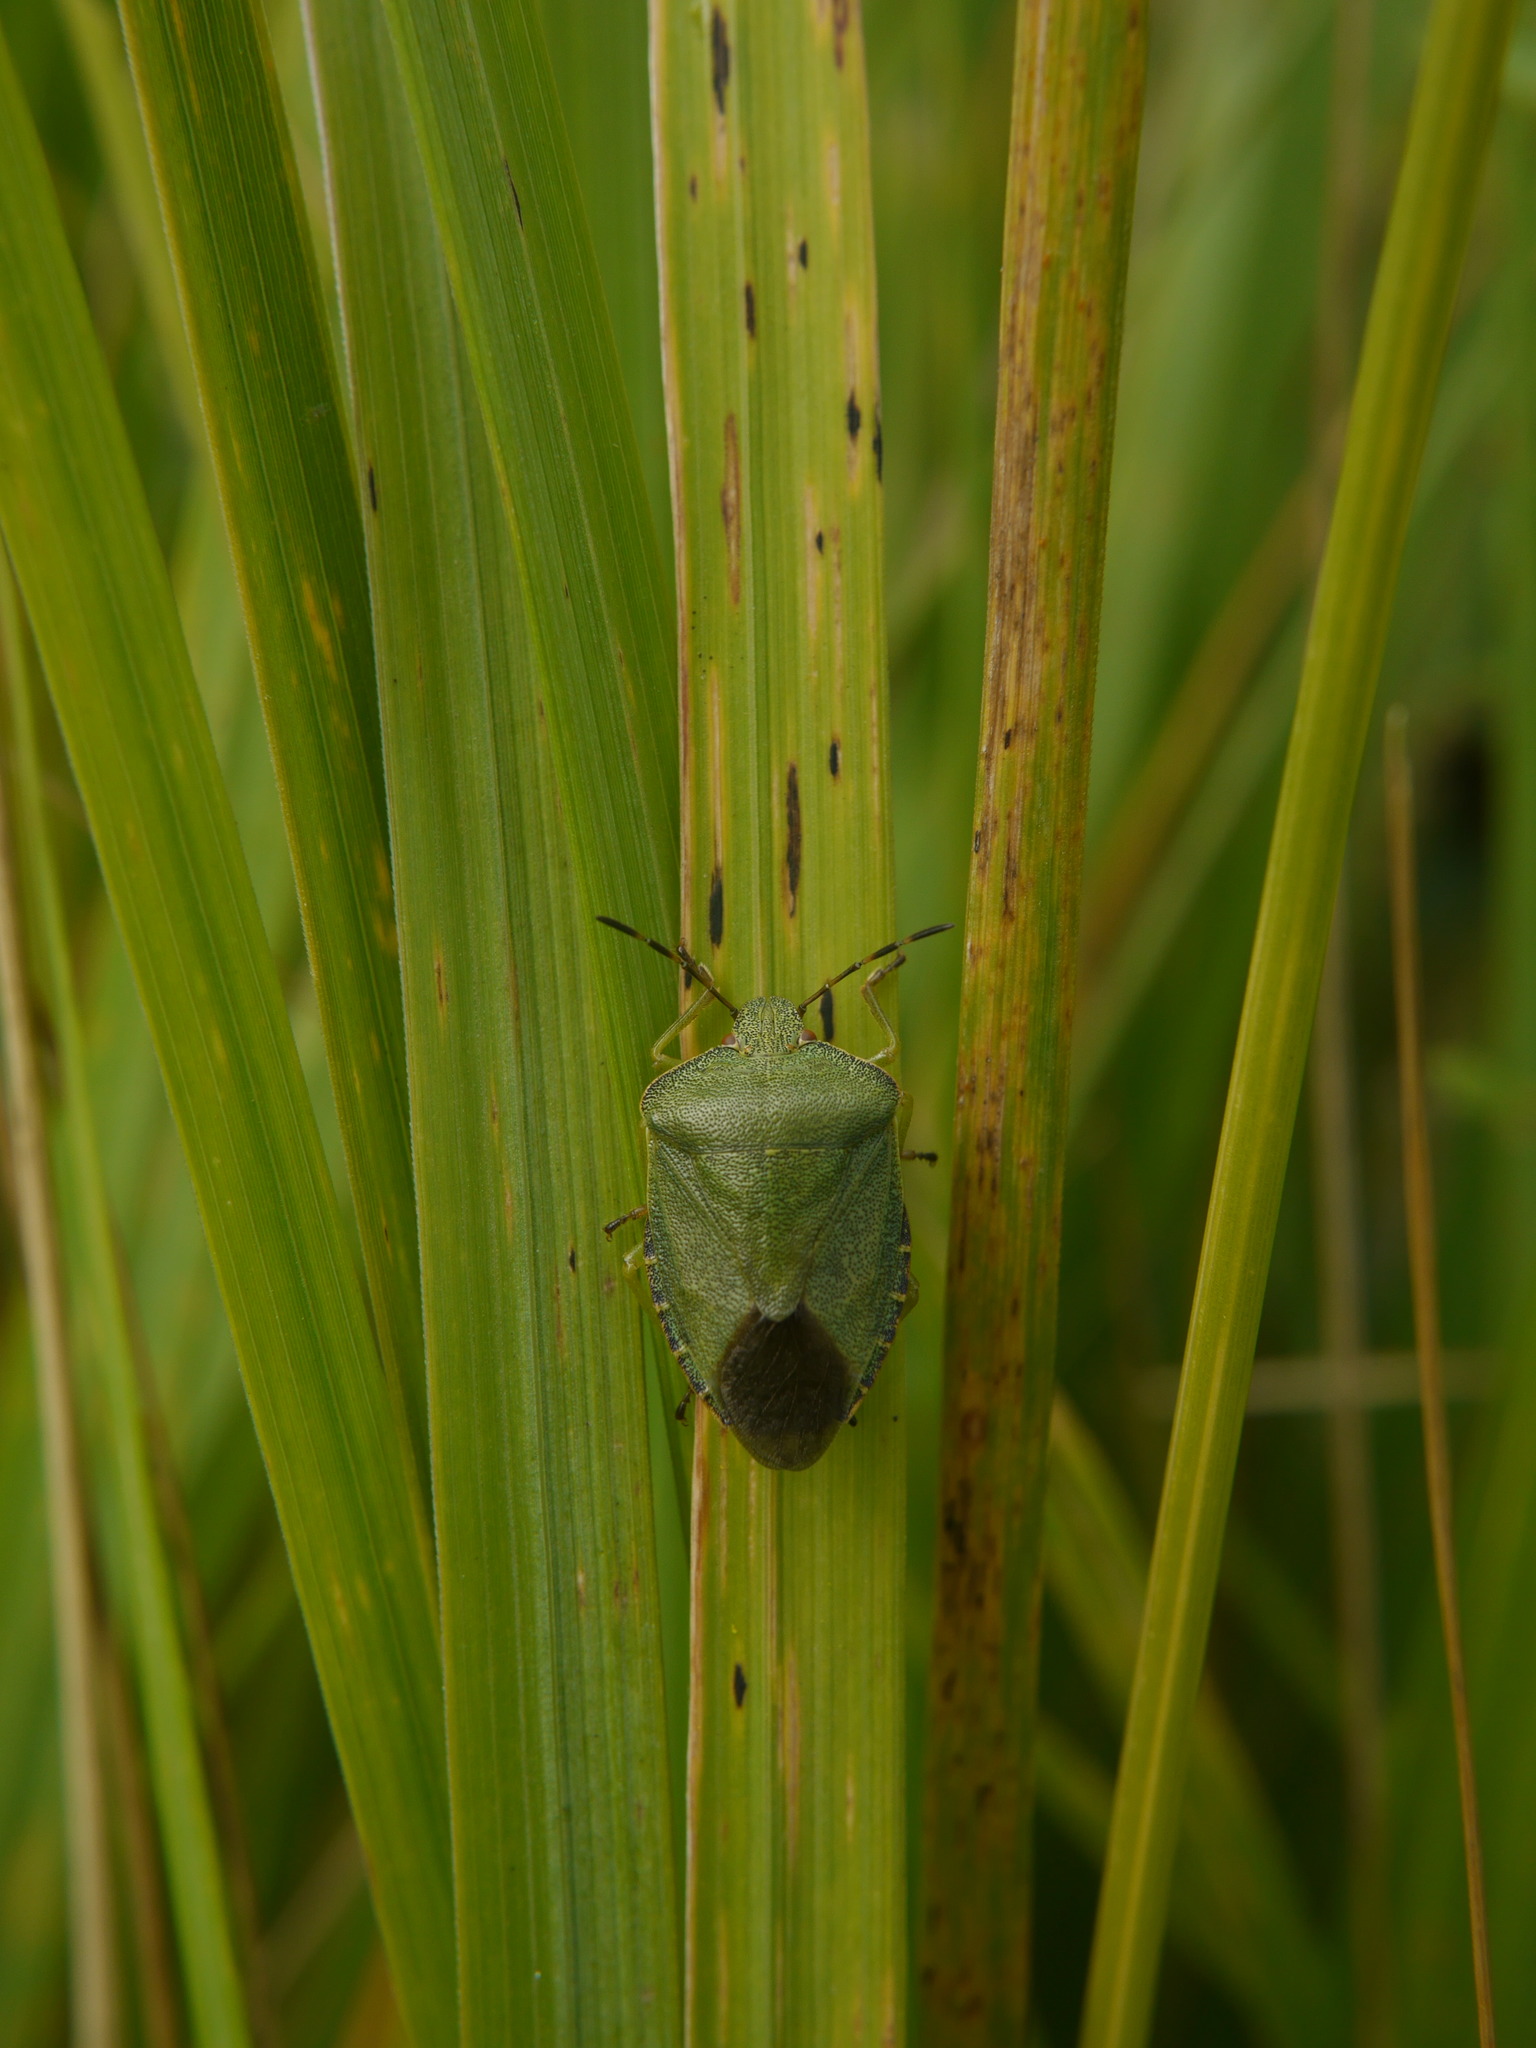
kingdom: Animalia
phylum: Arthropoda
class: Insecta
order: Hemiptera
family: Pentatomidae
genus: Palomena
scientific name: Palomena prasina
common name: Green shieldbug
